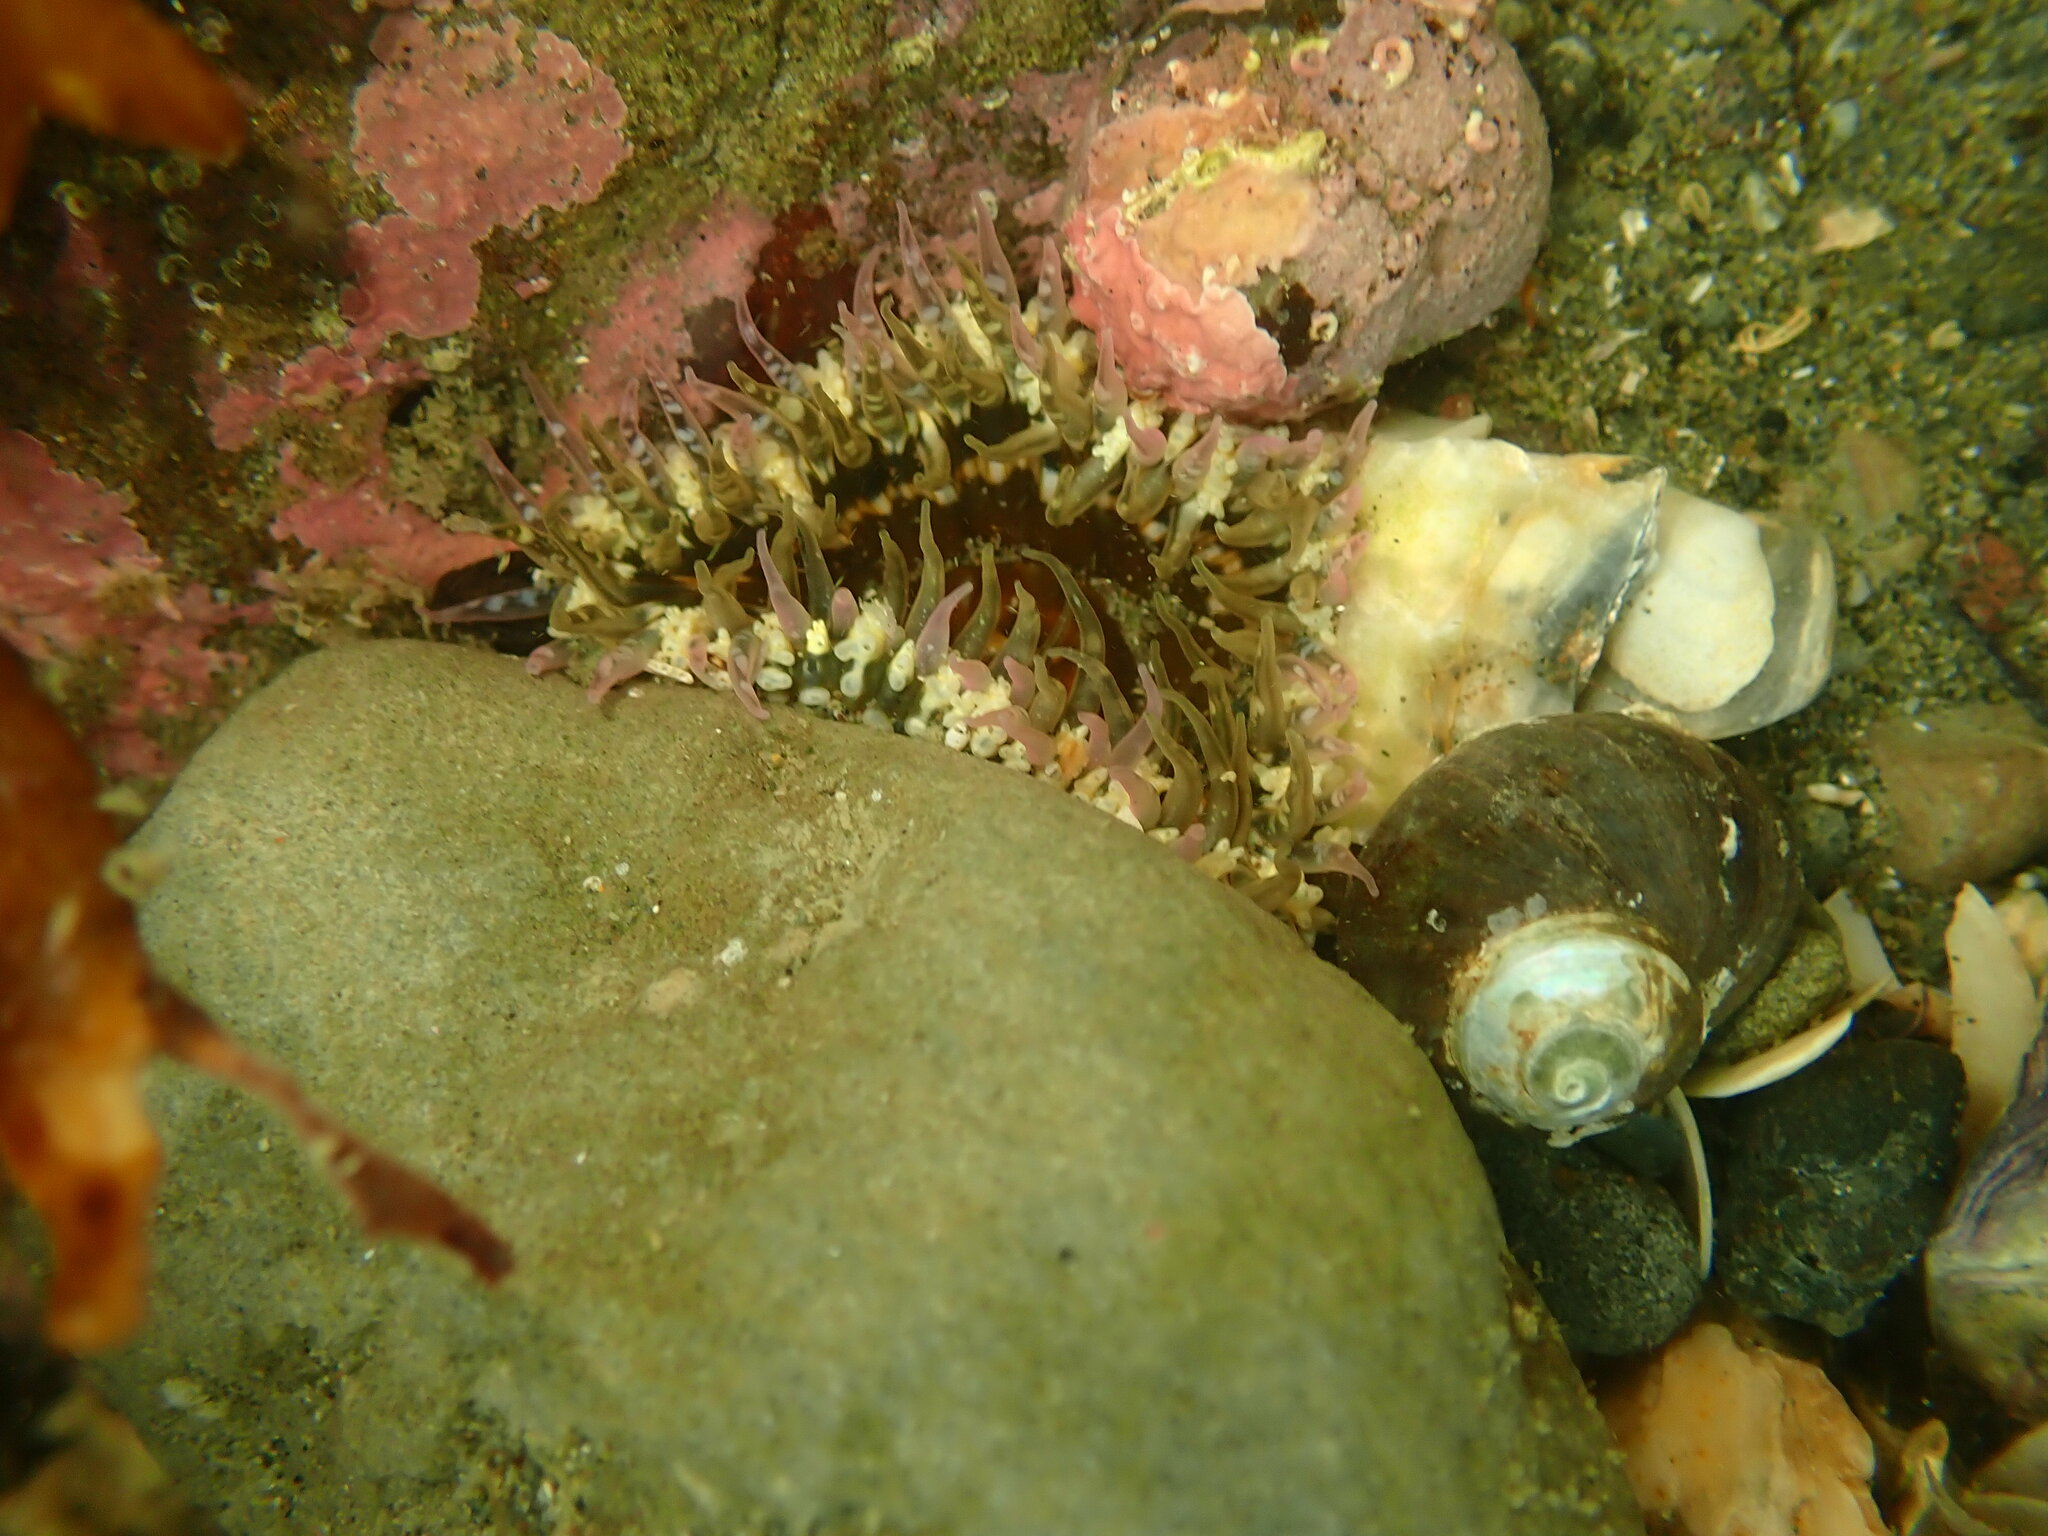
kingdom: Animalia
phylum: Cnidaria
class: Anthozoa
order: Actiniaria
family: Actiniidae
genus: Oulactis
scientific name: Oulactis muscosa
